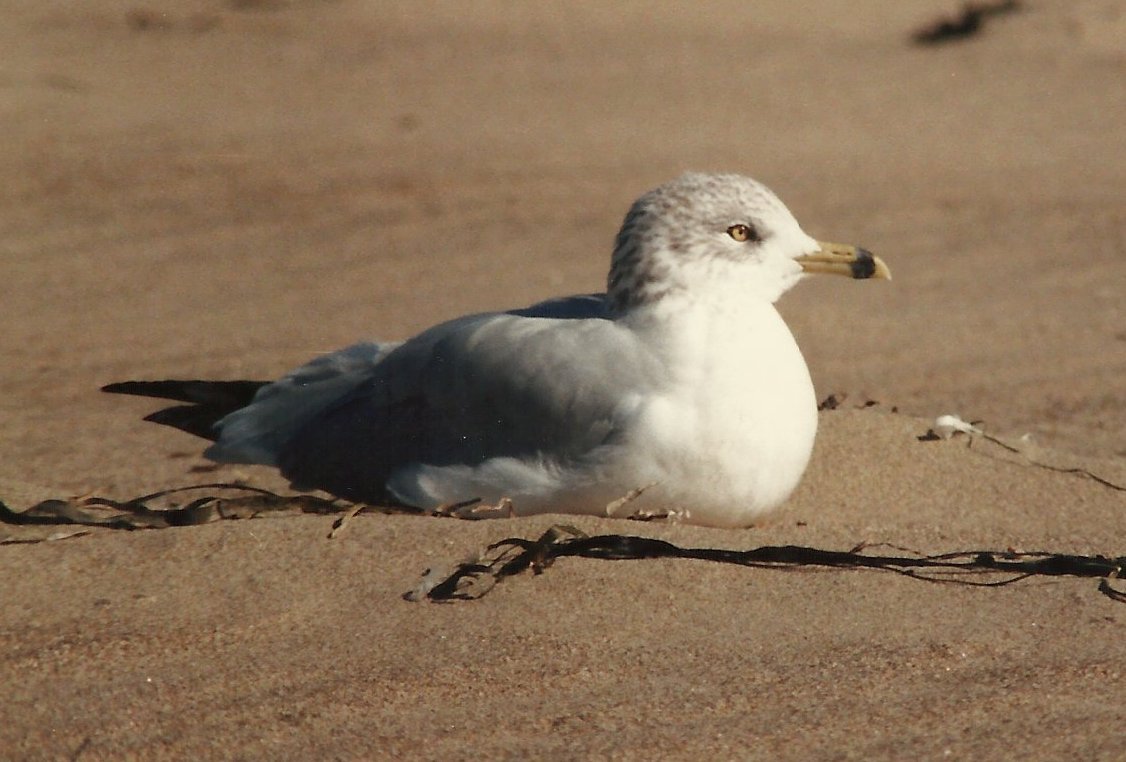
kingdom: Animalia
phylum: Chordata
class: Aves
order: Charadriiformes
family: Laridae
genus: Larus
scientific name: Larus delawarensis
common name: Ring-billed gull
